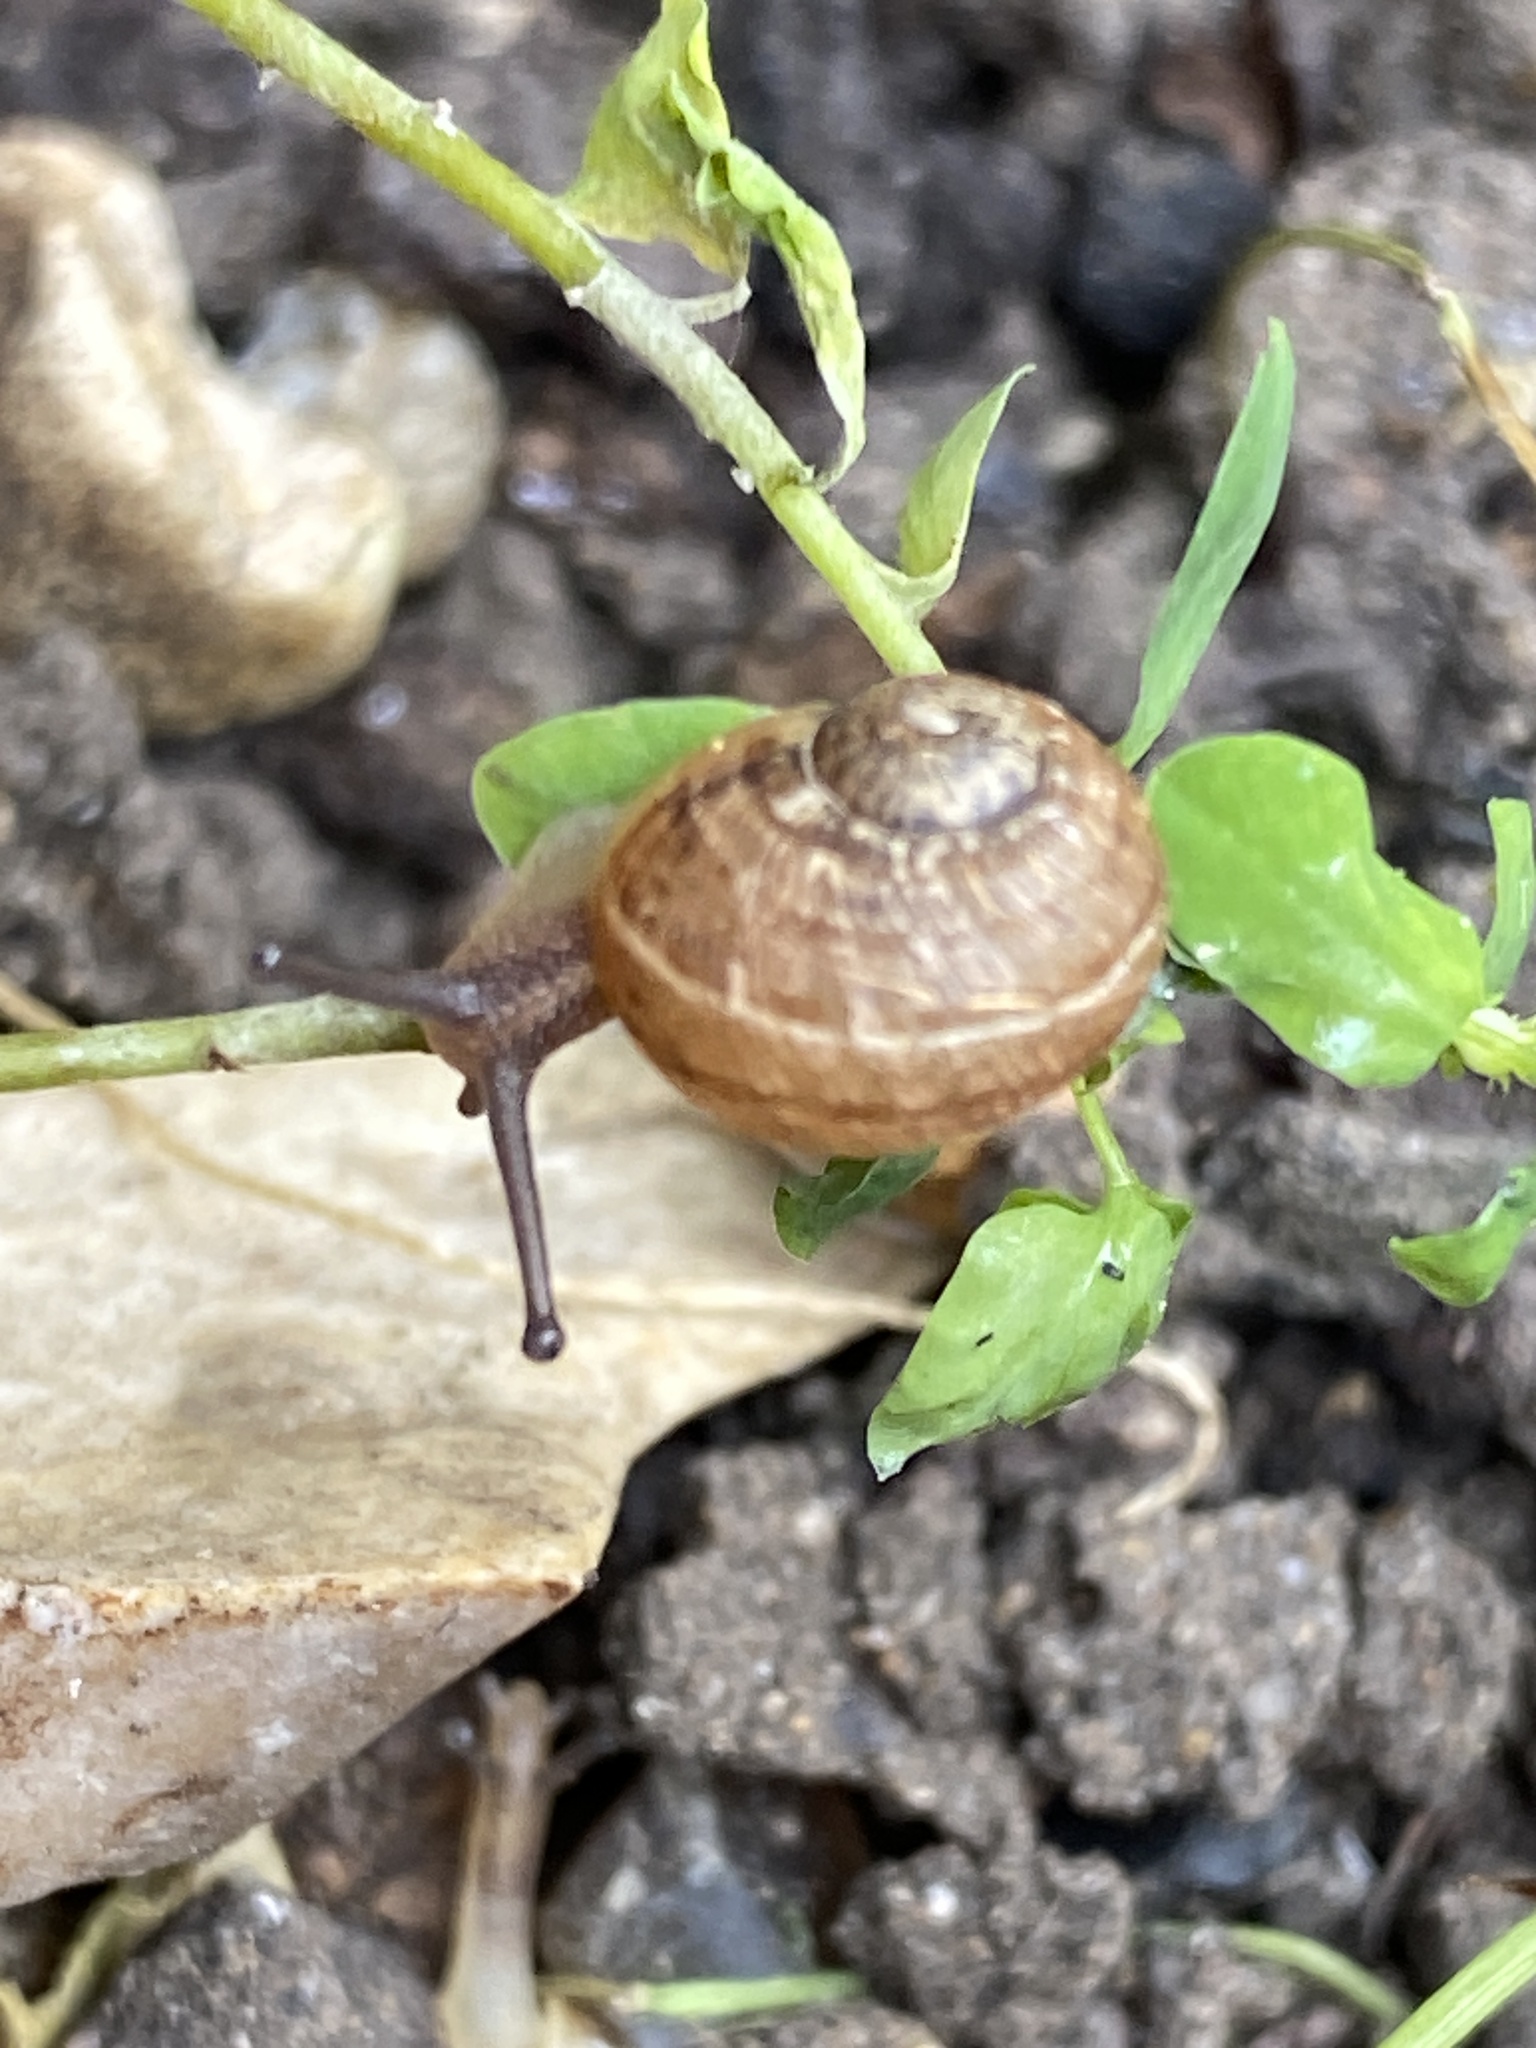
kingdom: Animalia
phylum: Mollusca
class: Gastropoda
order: Stylommatophora
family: Helicidae
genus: Cornu
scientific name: Cornu aspersum
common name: Brown garden snail
